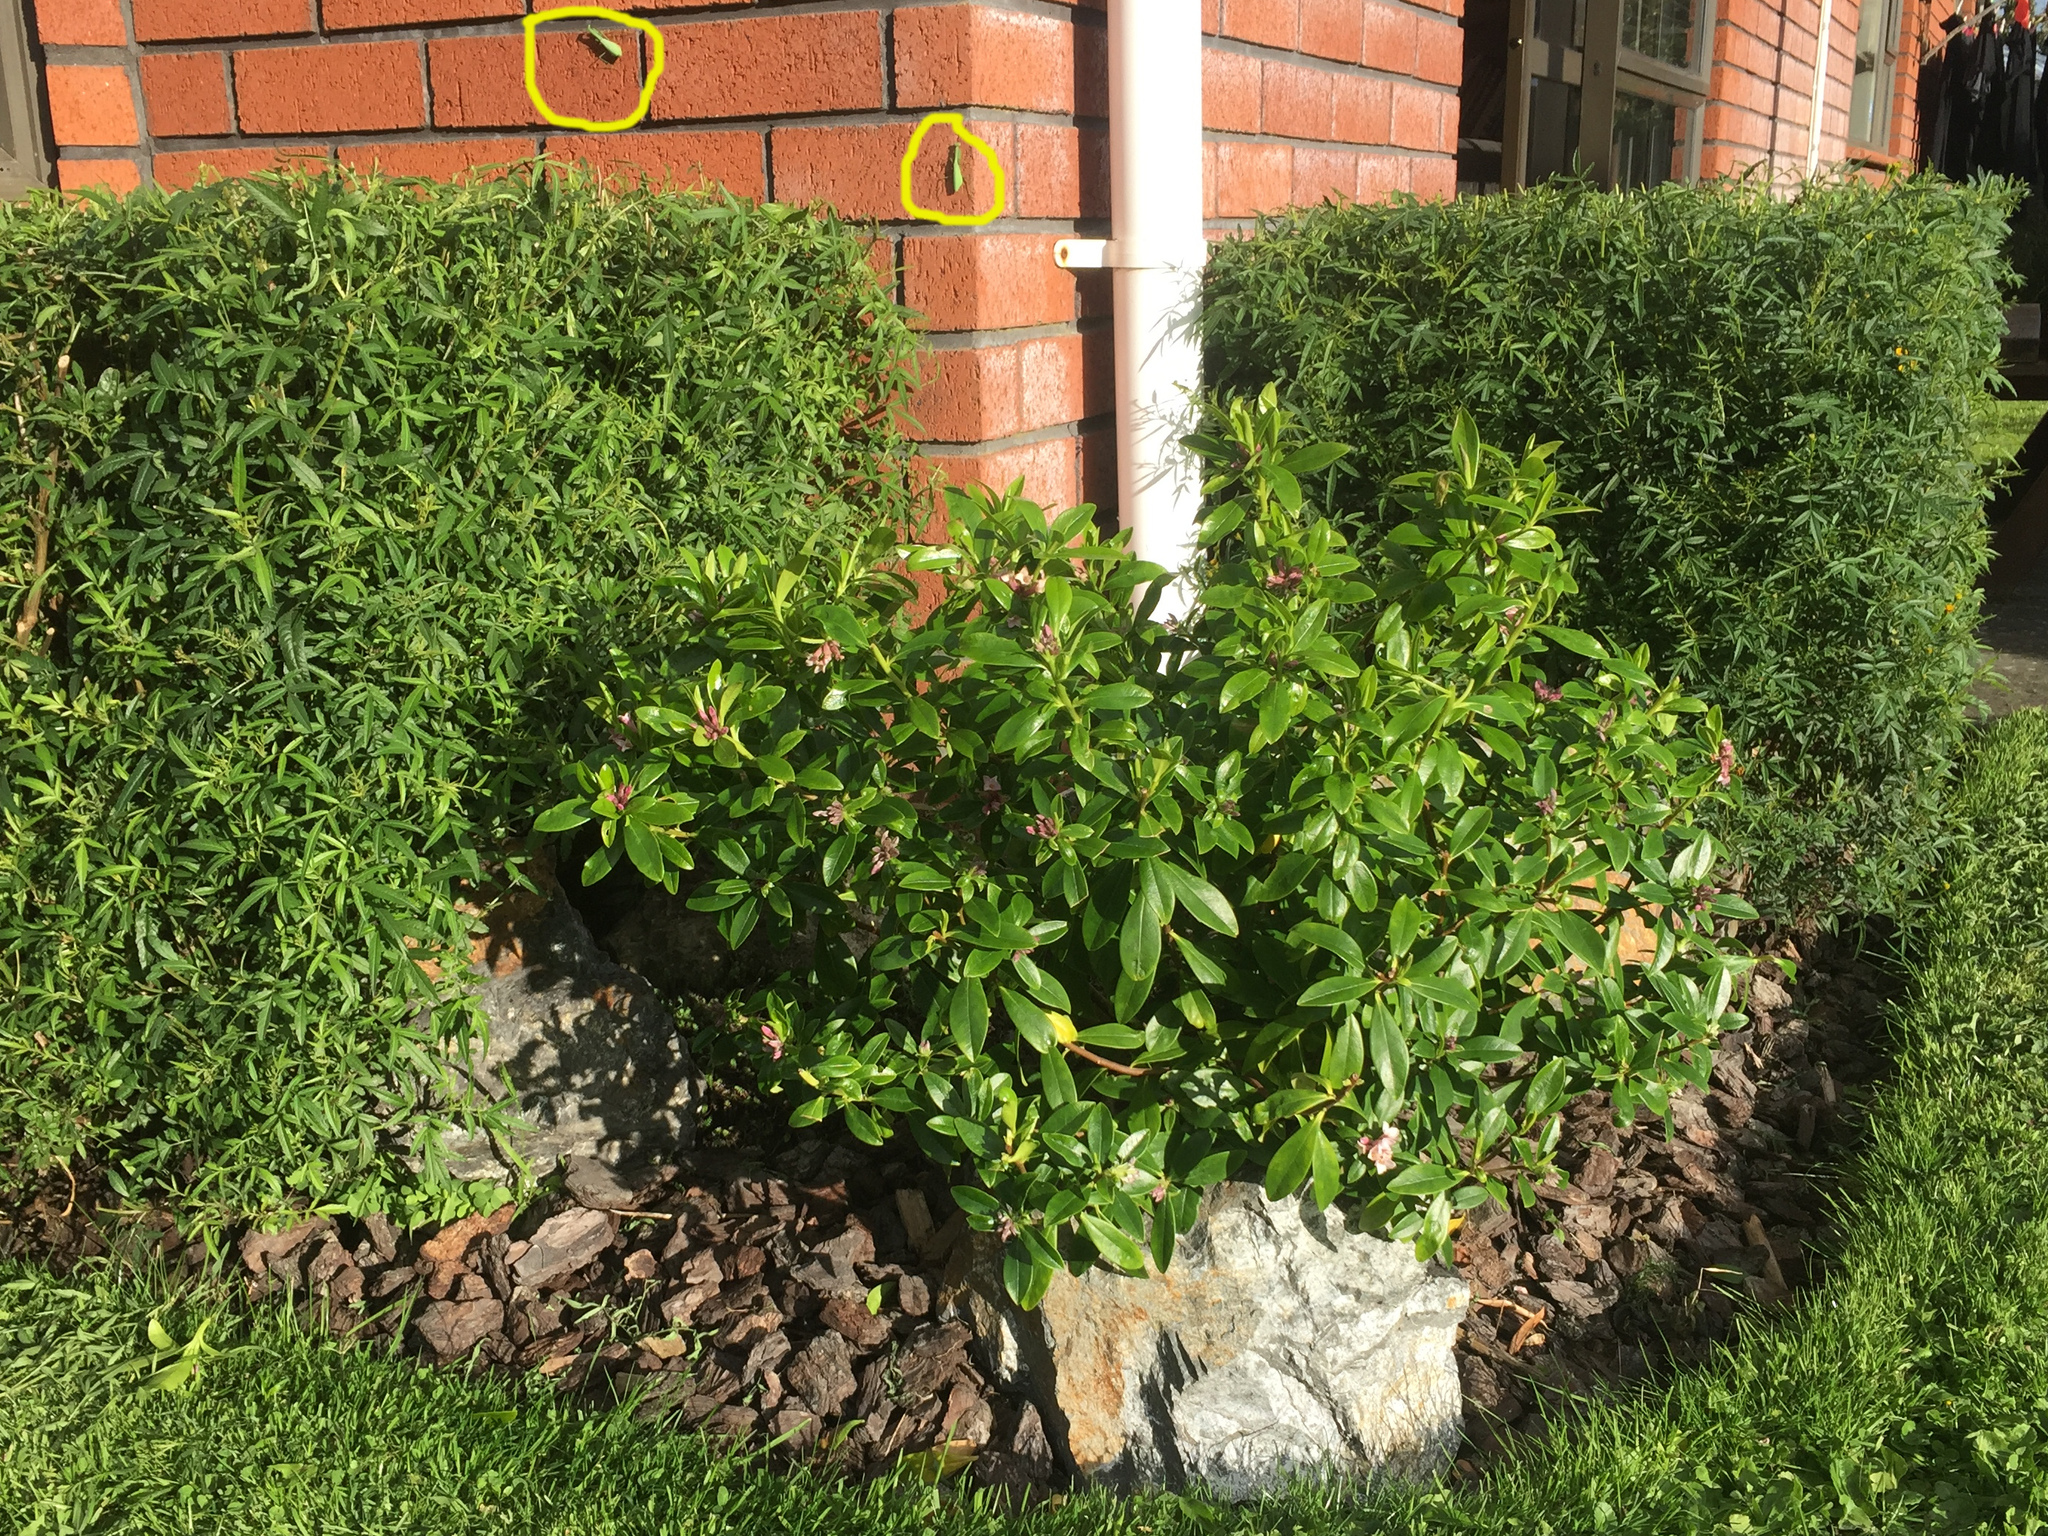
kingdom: Animalia
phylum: Arthropoda
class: Insecta
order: Mantodea
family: Miomantidae
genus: Miomantis
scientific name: Miomantis caffra
